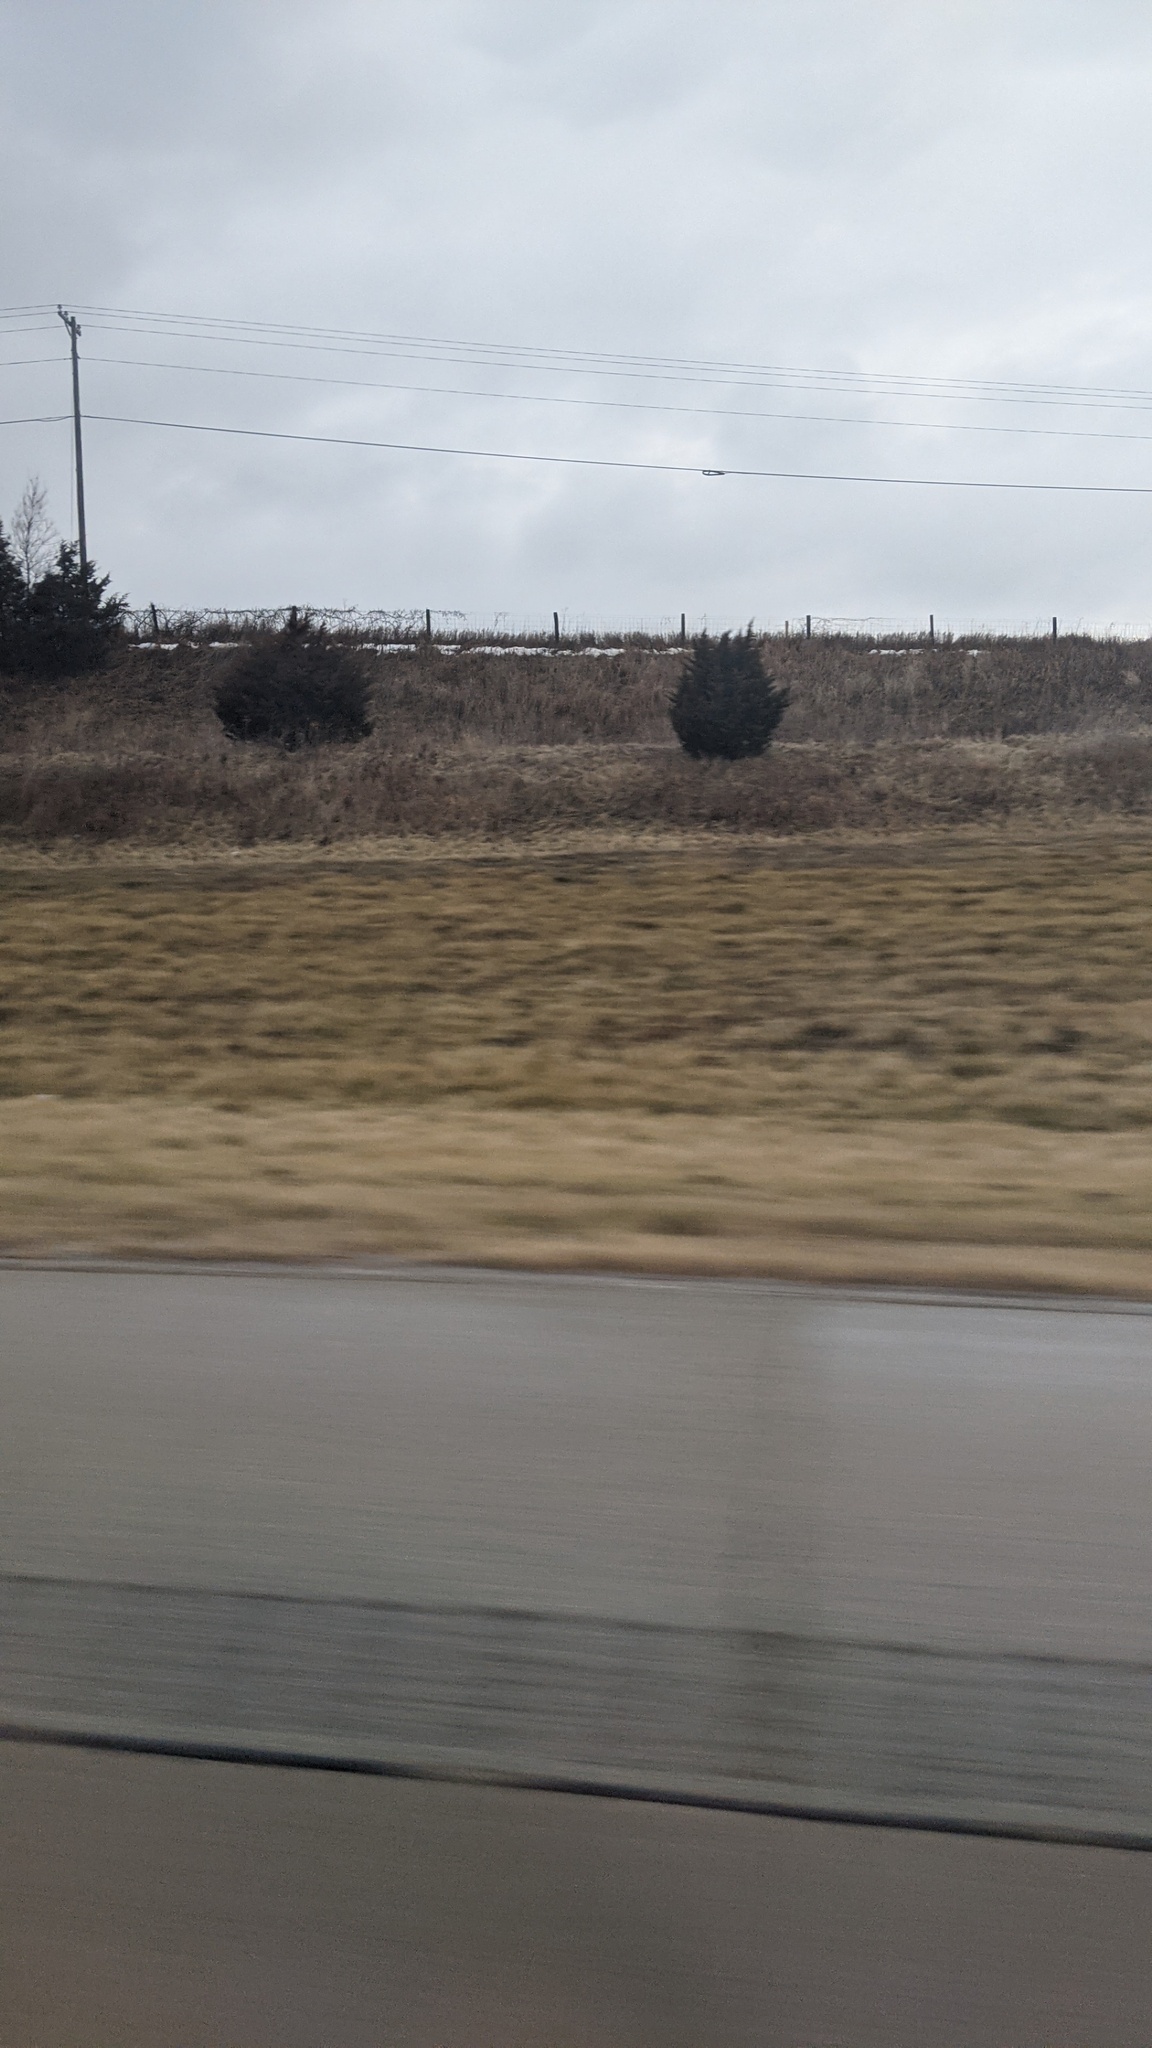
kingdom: Plantae
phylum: Tracheophyta
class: Pinopsida
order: Pinales
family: Cupressaceae
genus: Juniperus
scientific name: Juniperus virginiana
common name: Red juniper
